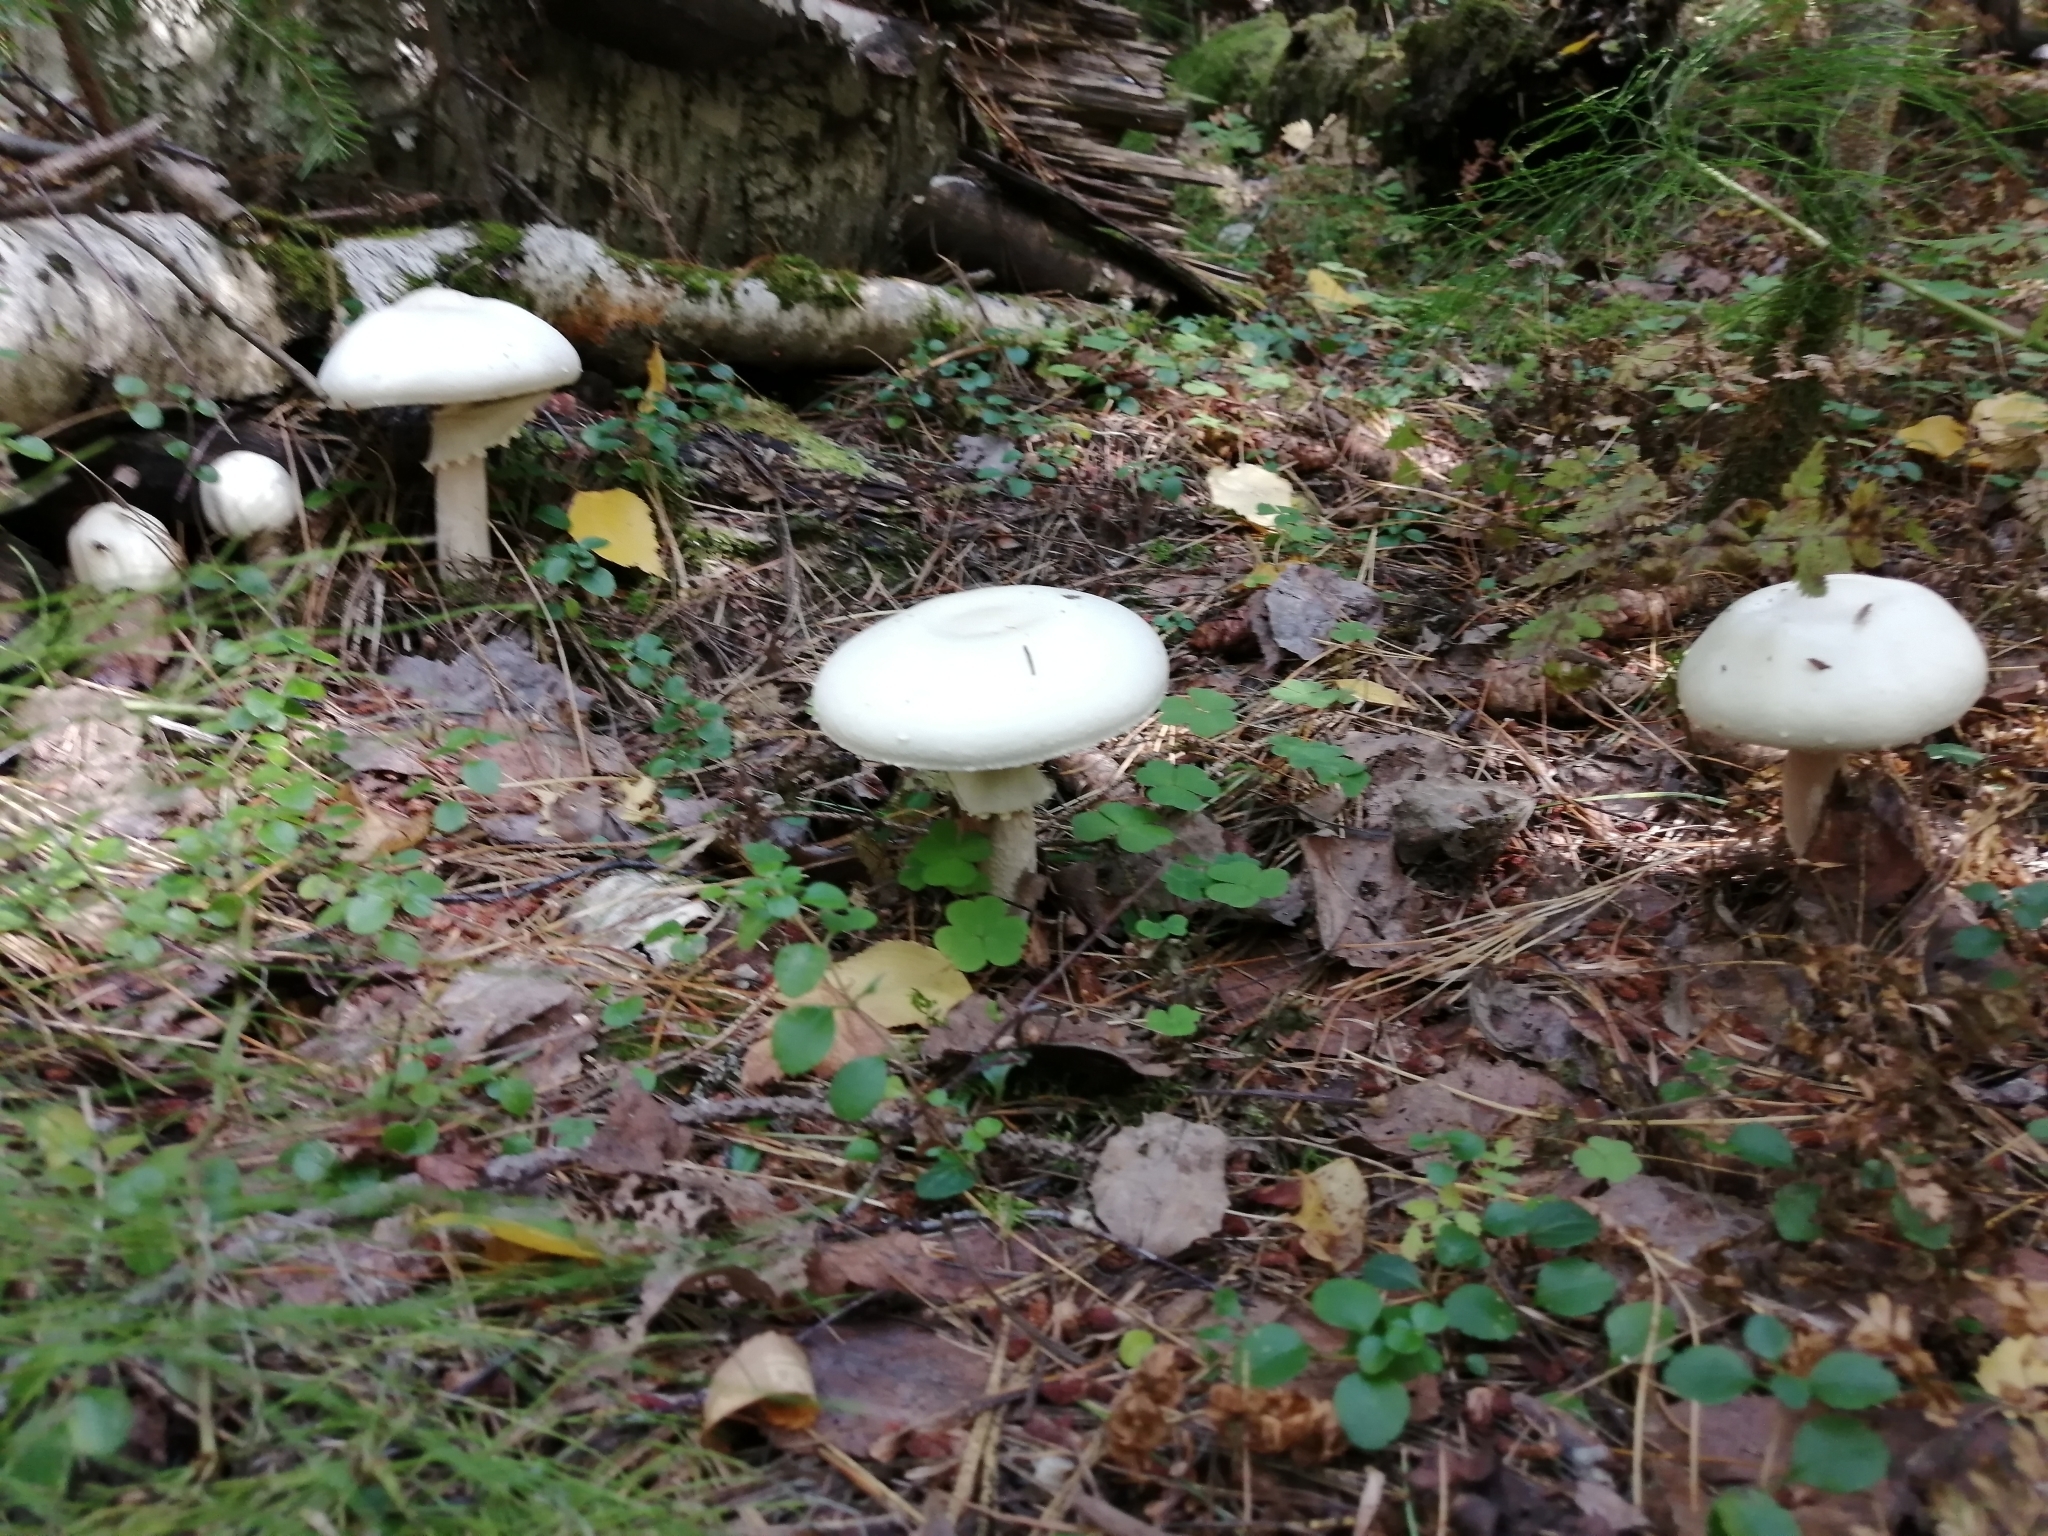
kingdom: Fungi
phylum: Basidiomycota
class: Agaricomycetes
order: Agaricales
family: Agaricaceae
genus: Agaricus
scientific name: Agaricus sylvicola
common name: Wood mushroom
